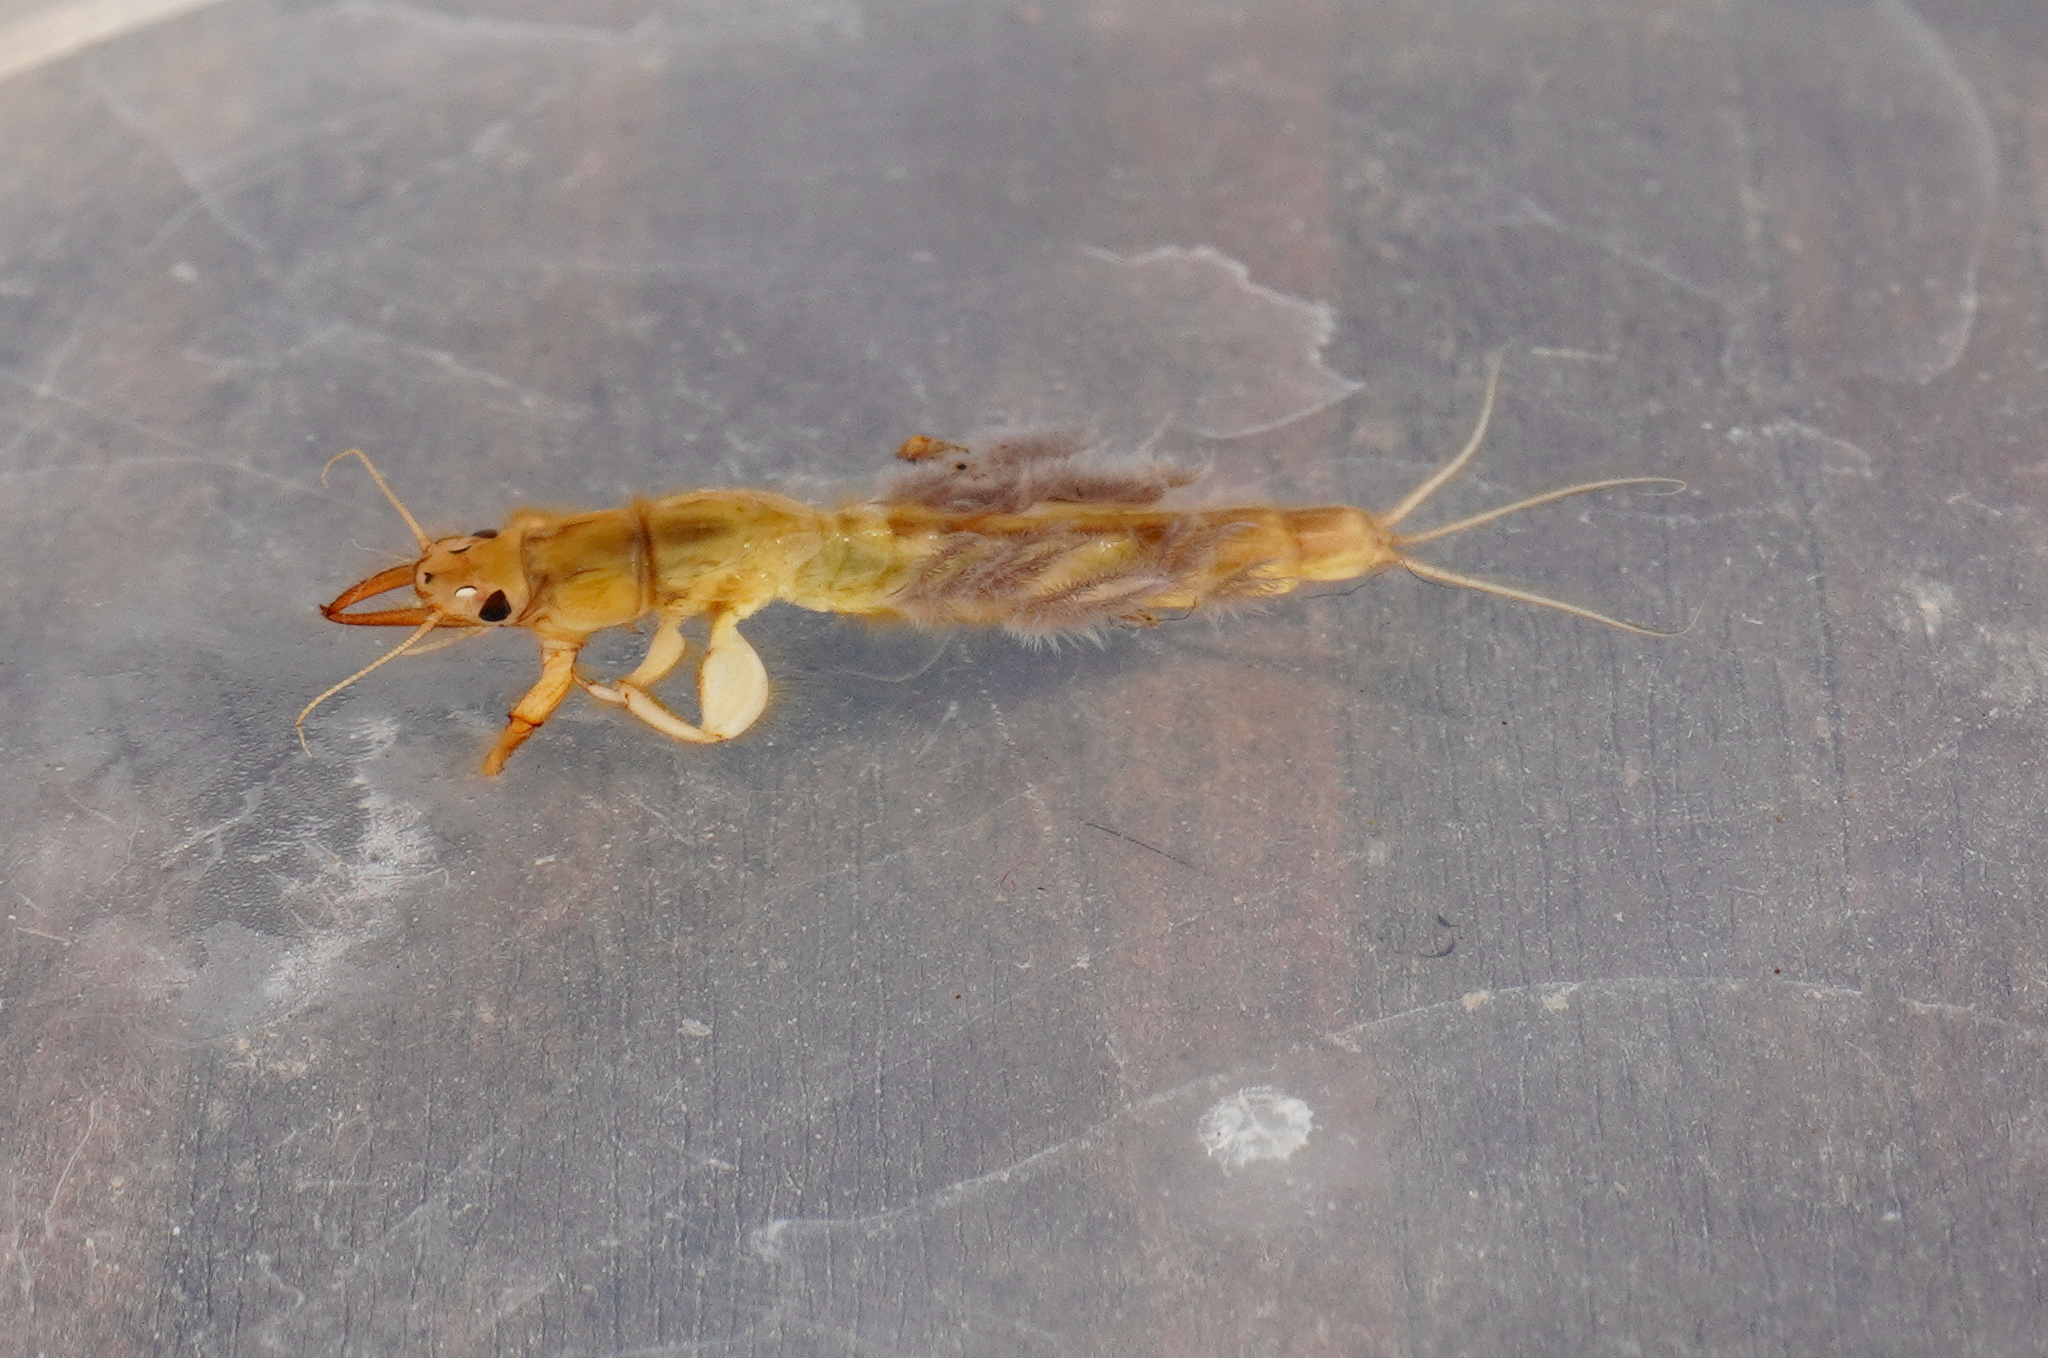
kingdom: Animalia
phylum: Arthropoda
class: Insecta
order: Ephemeroptera
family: Ichthybotidae
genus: Ichthybotus
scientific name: Ichthybotus hudsoni
